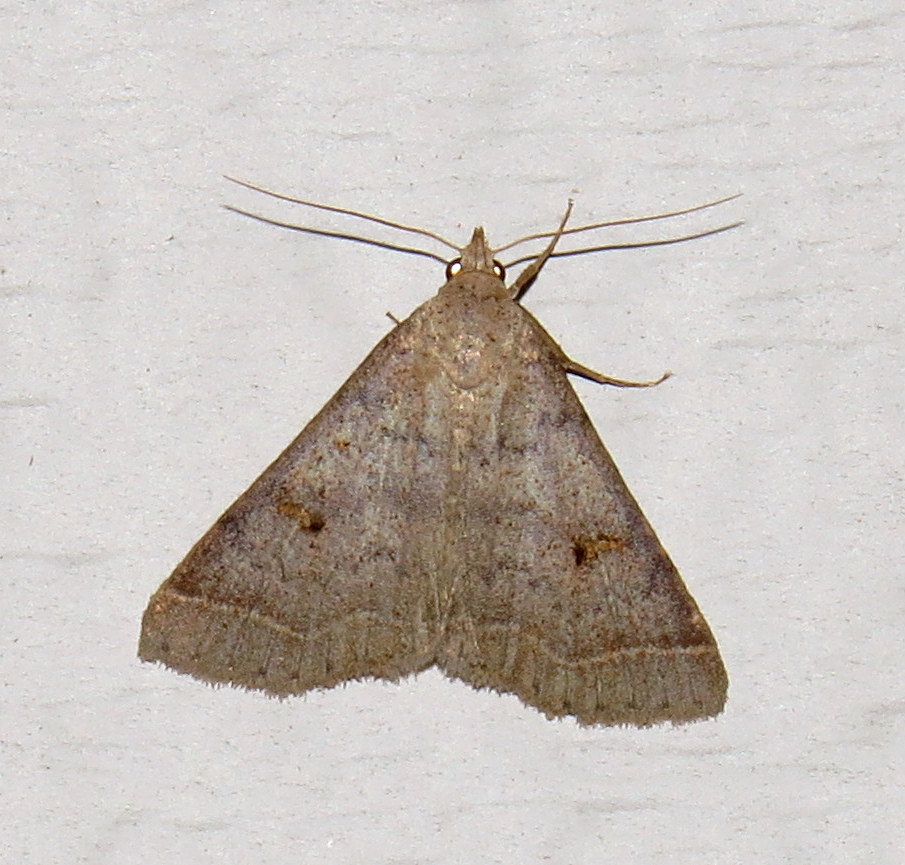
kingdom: Animalia
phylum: Arthropoda
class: Insecta
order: Lepidoptera
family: Erebidae
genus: Bleptina
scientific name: Bleptina caradrinalis
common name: Bent-winged owlet
